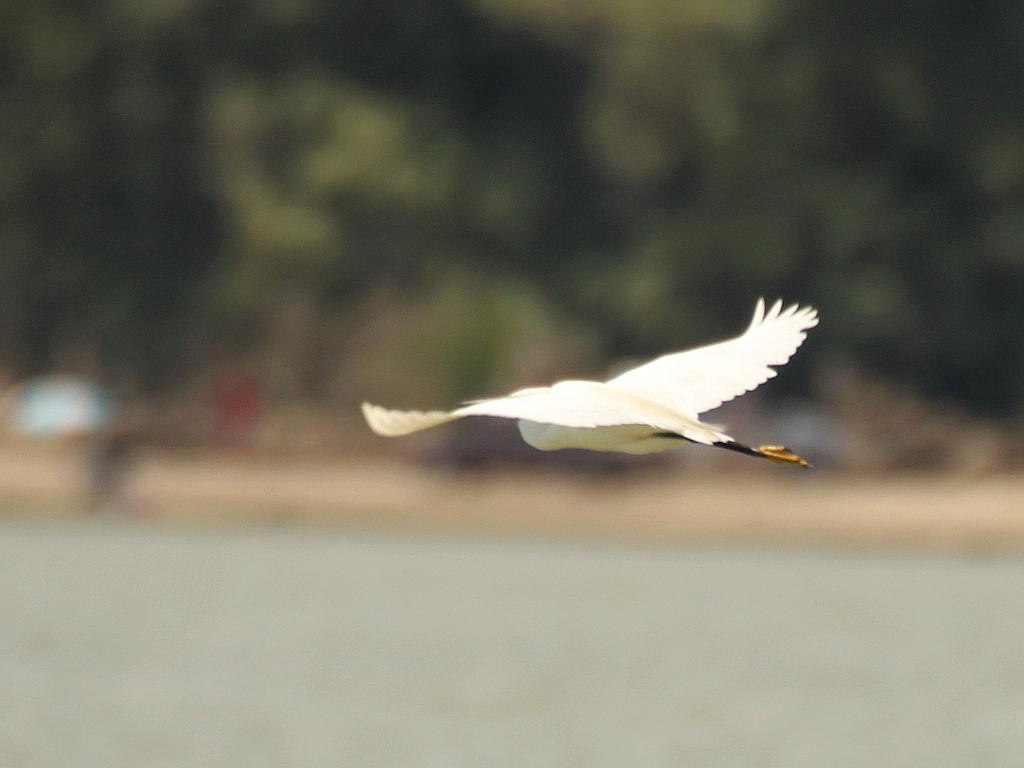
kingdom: Animalia
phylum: Chordata
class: Aves
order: Pelecaniformes
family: Ardeidae
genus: Egretta
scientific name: Egretta garzetta
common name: Little egret
